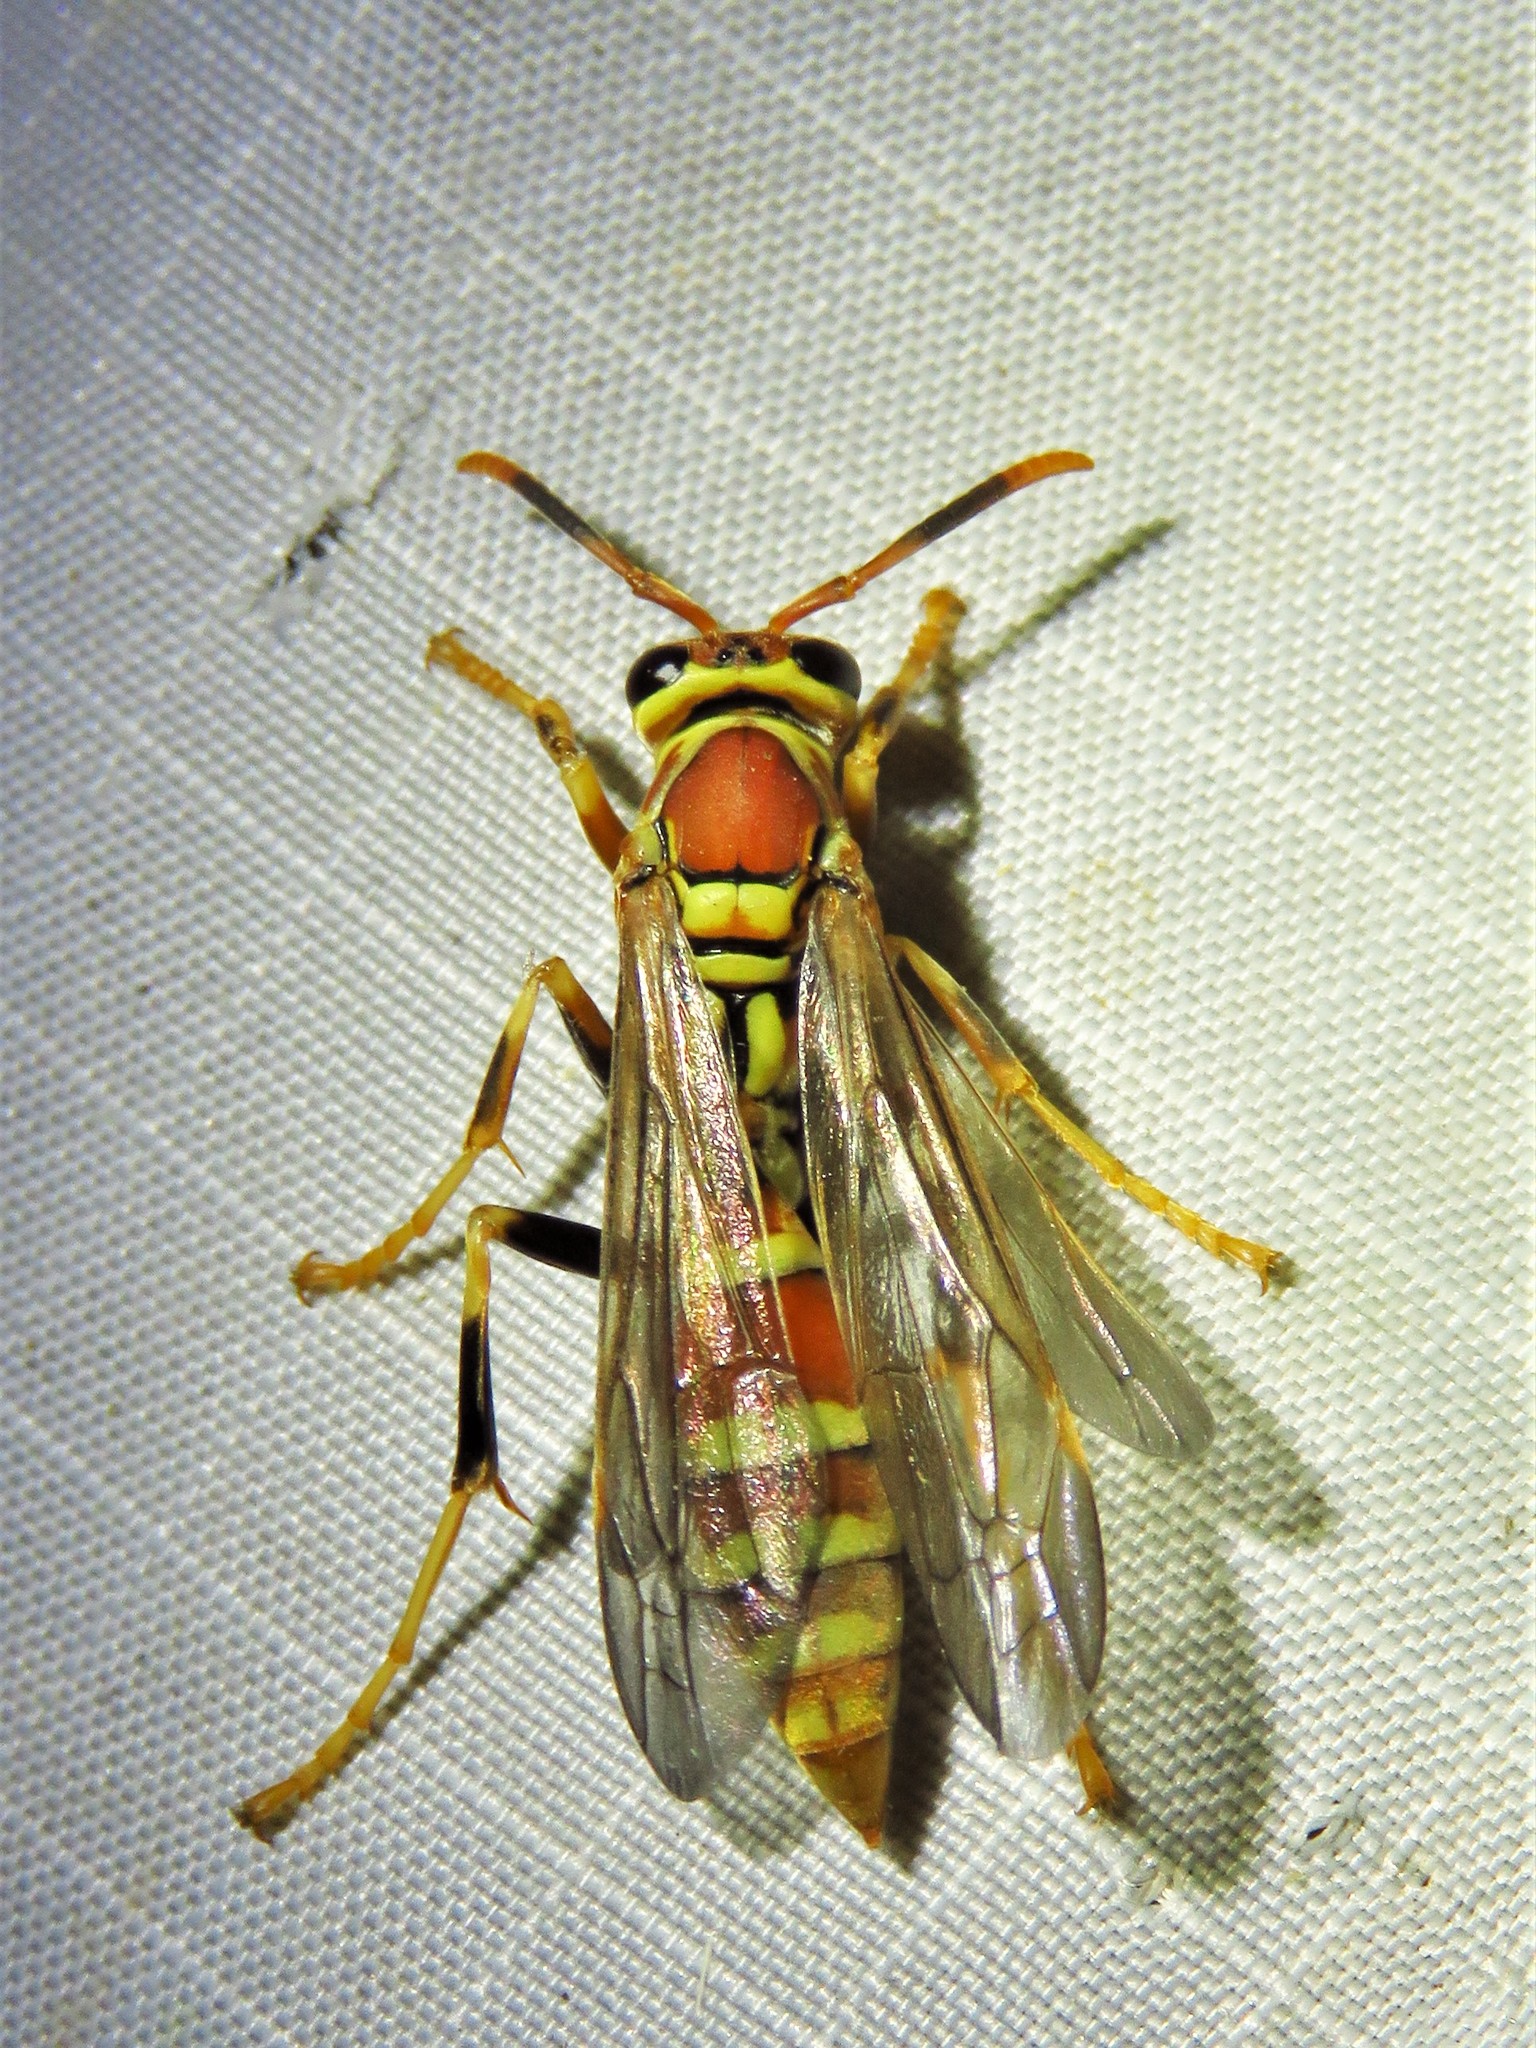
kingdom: Animalia
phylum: Arthropoda
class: Insecta
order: Hymenoptera
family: Eumenidae
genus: Polistes
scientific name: Polistes exclamans
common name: Paper wasp
